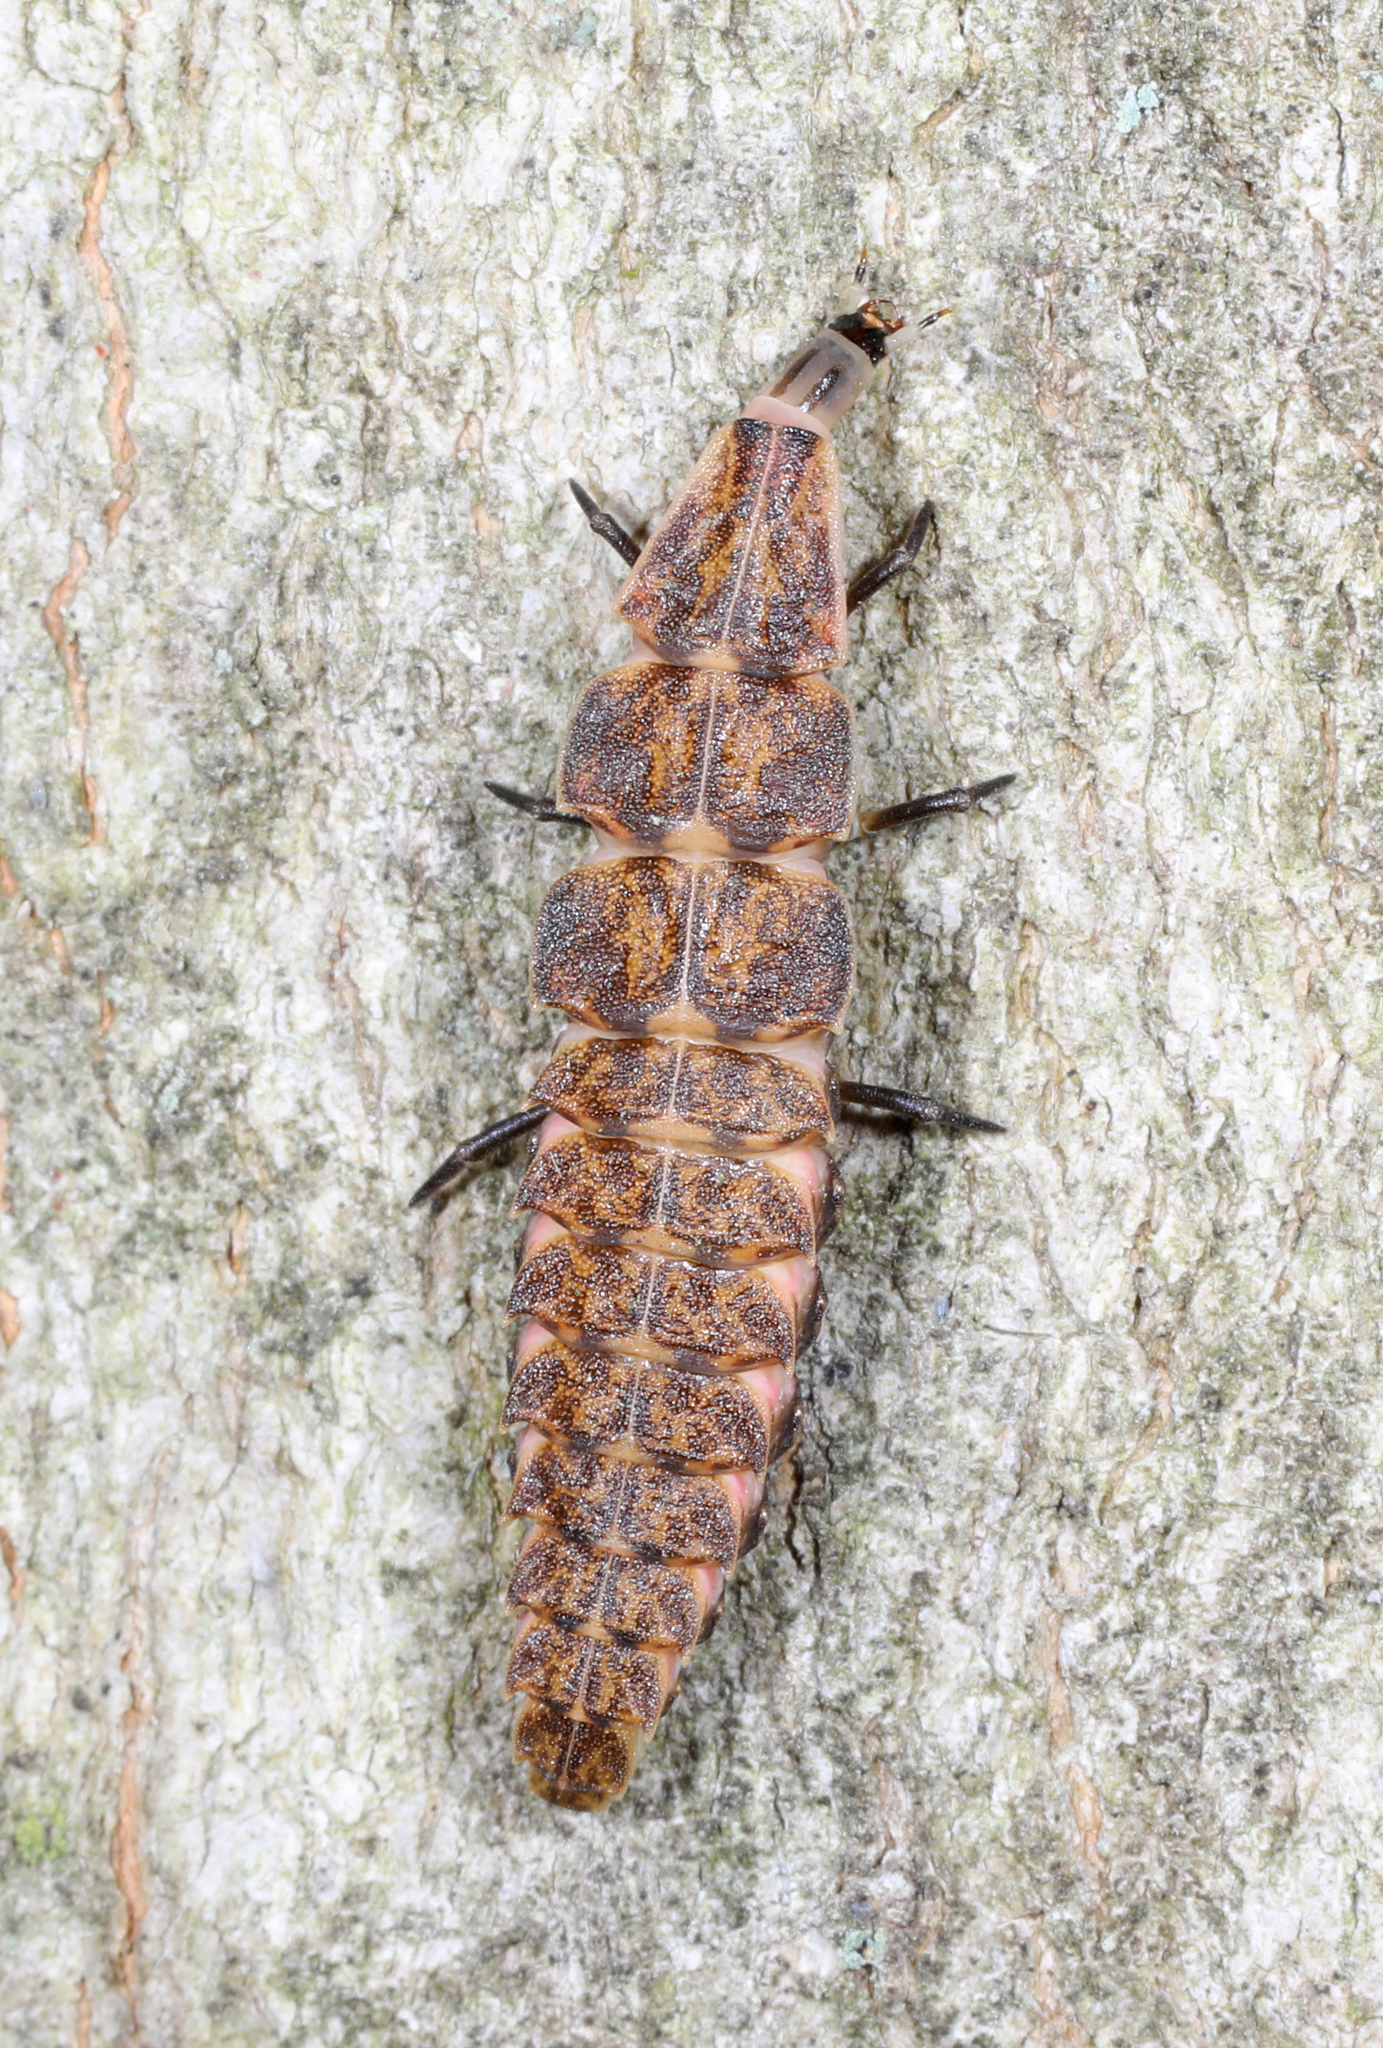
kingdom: Animalia
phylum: Arthropoda
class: Insecta
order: Coleoptera
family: Lampyridae
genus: Pyractomena
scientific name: Pyractomena
